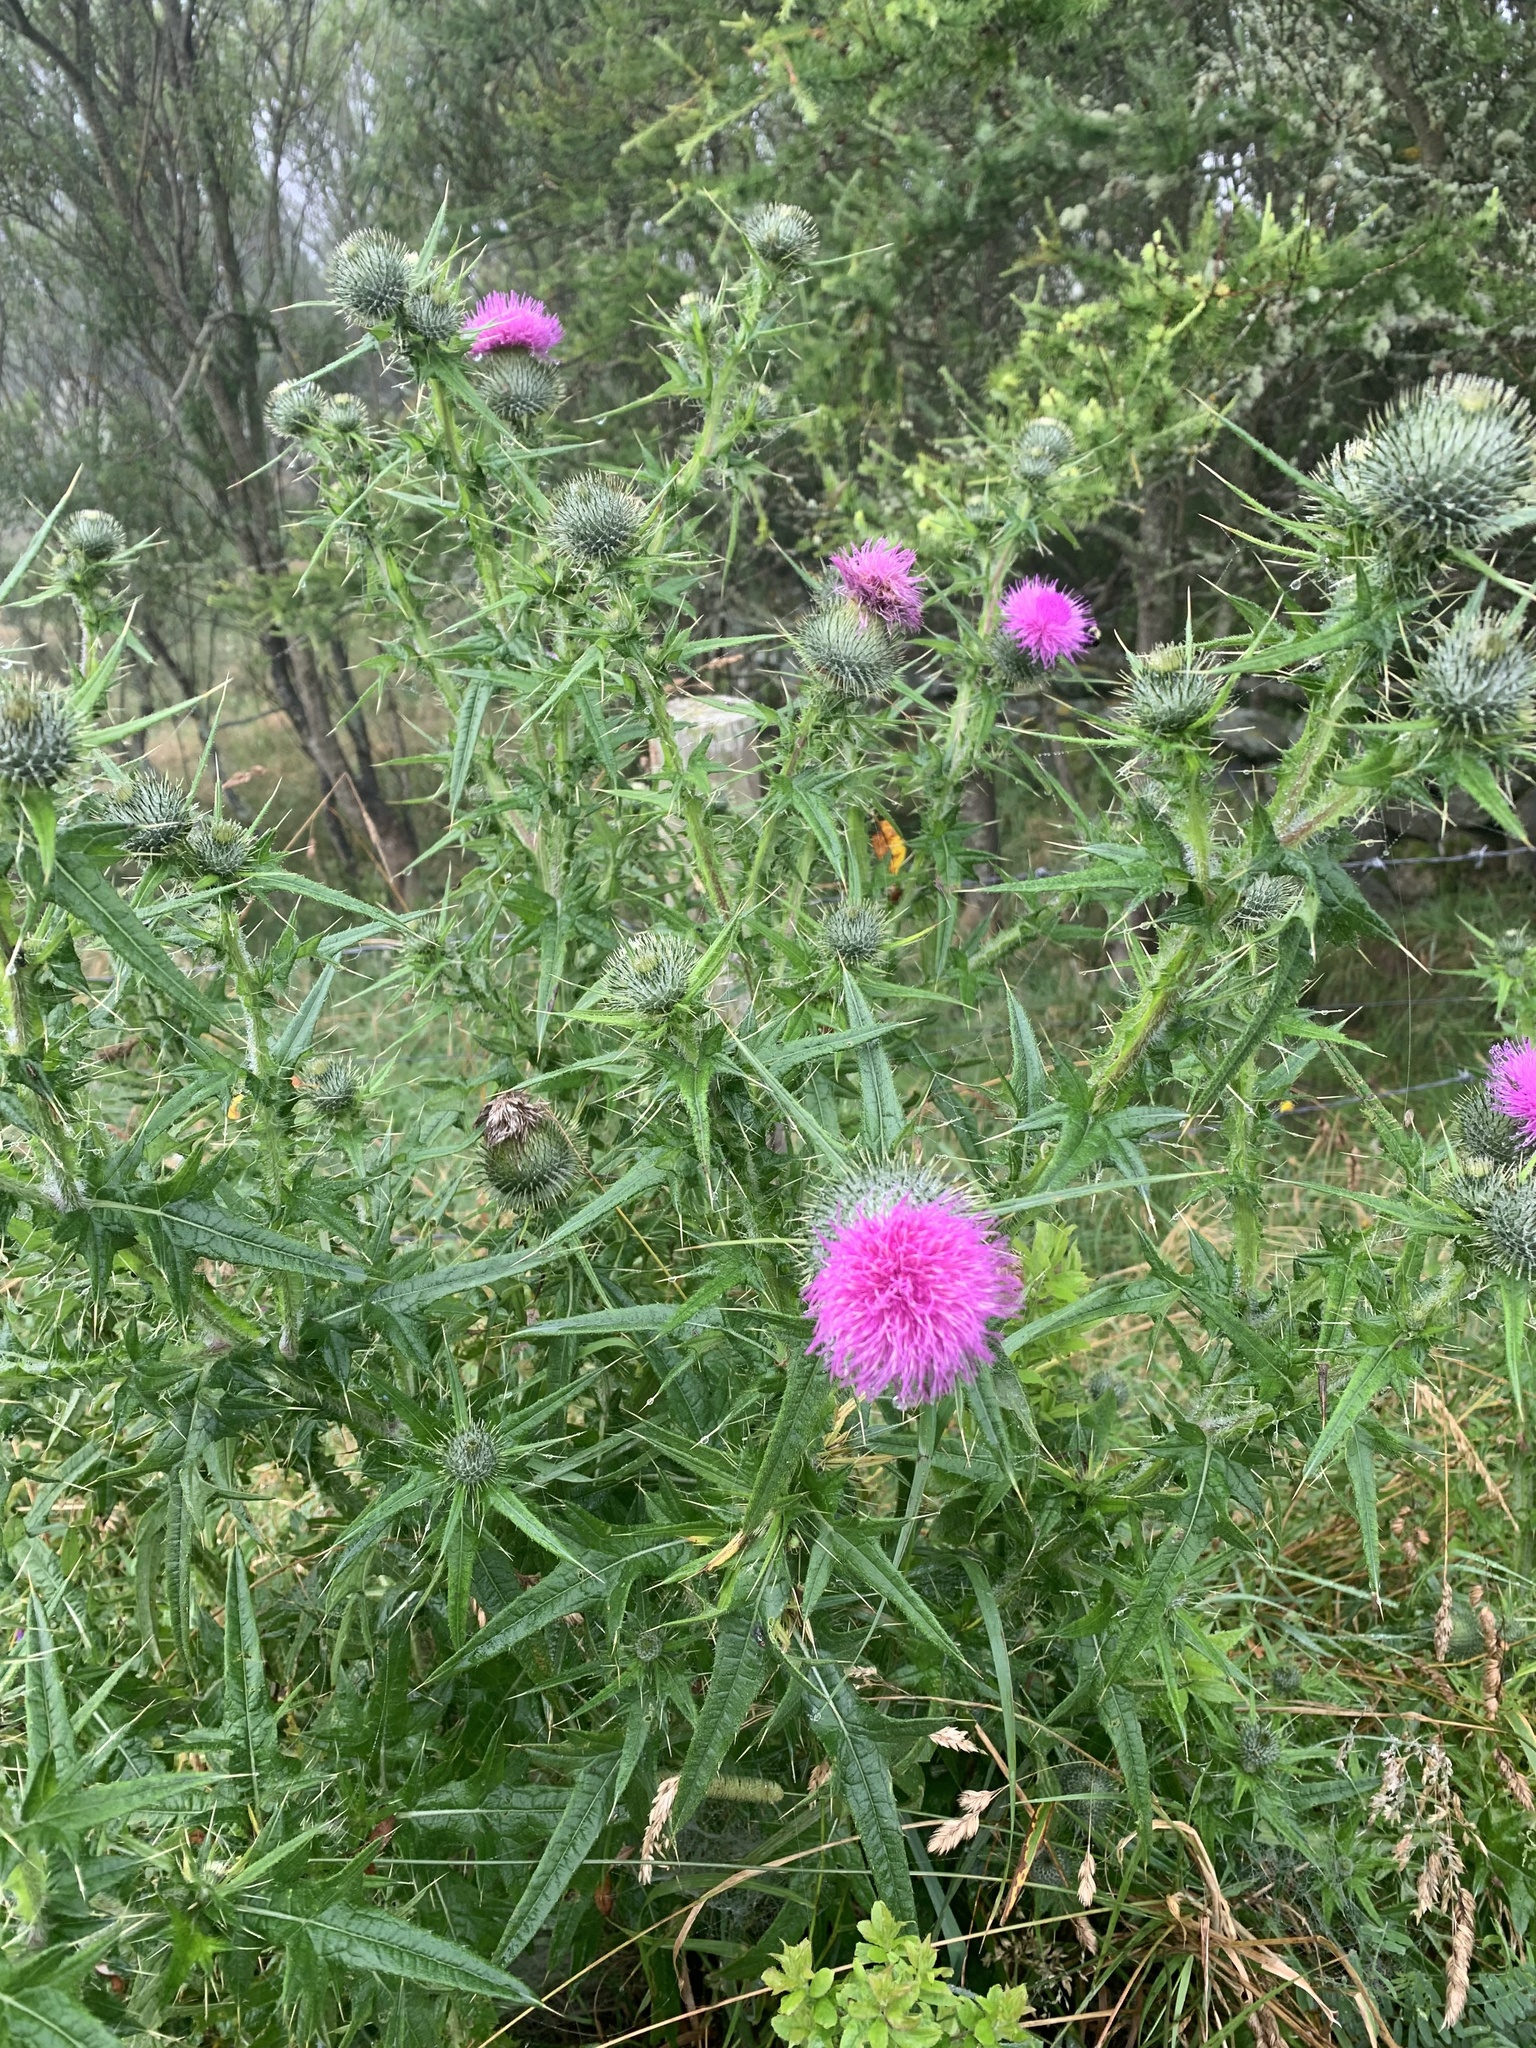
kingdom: Plantae
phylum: Tracheophyta
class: Magnoliopsida
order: Asterales
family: Asteraceae
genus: Cirsium
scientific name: Cirsium vulgare
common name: Bull thistle
